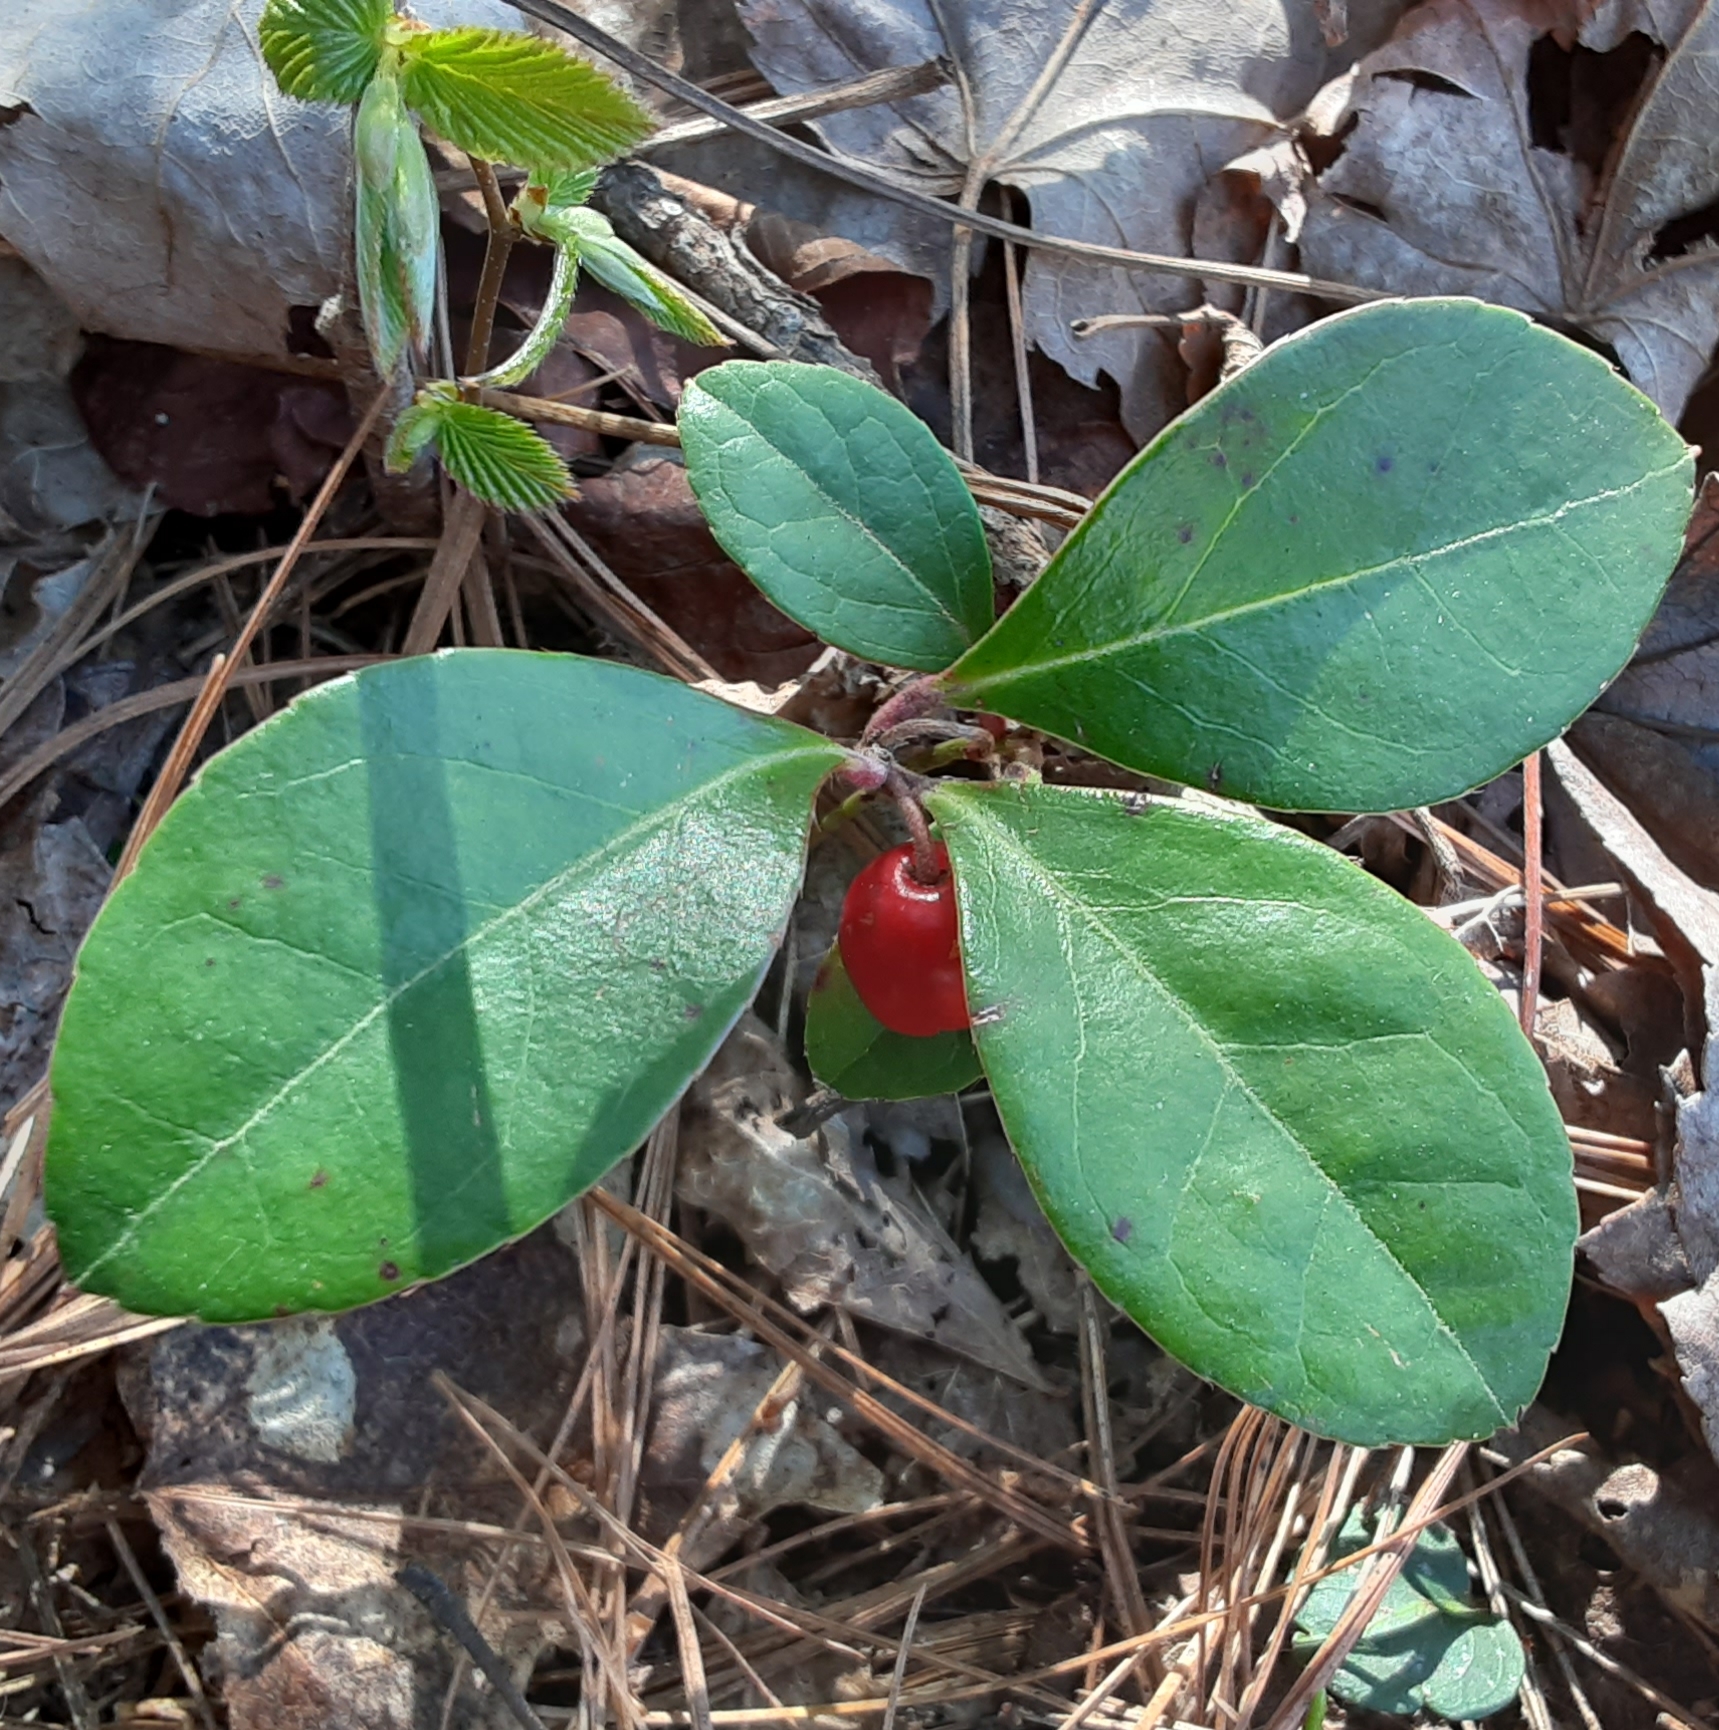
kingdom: Plantae
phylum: Tracheophyta
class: Magnoliopsida
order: Ericales
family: Ericaceae
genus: Gaultheria
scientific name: Gaultheria procumbens
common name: Checkerberry
